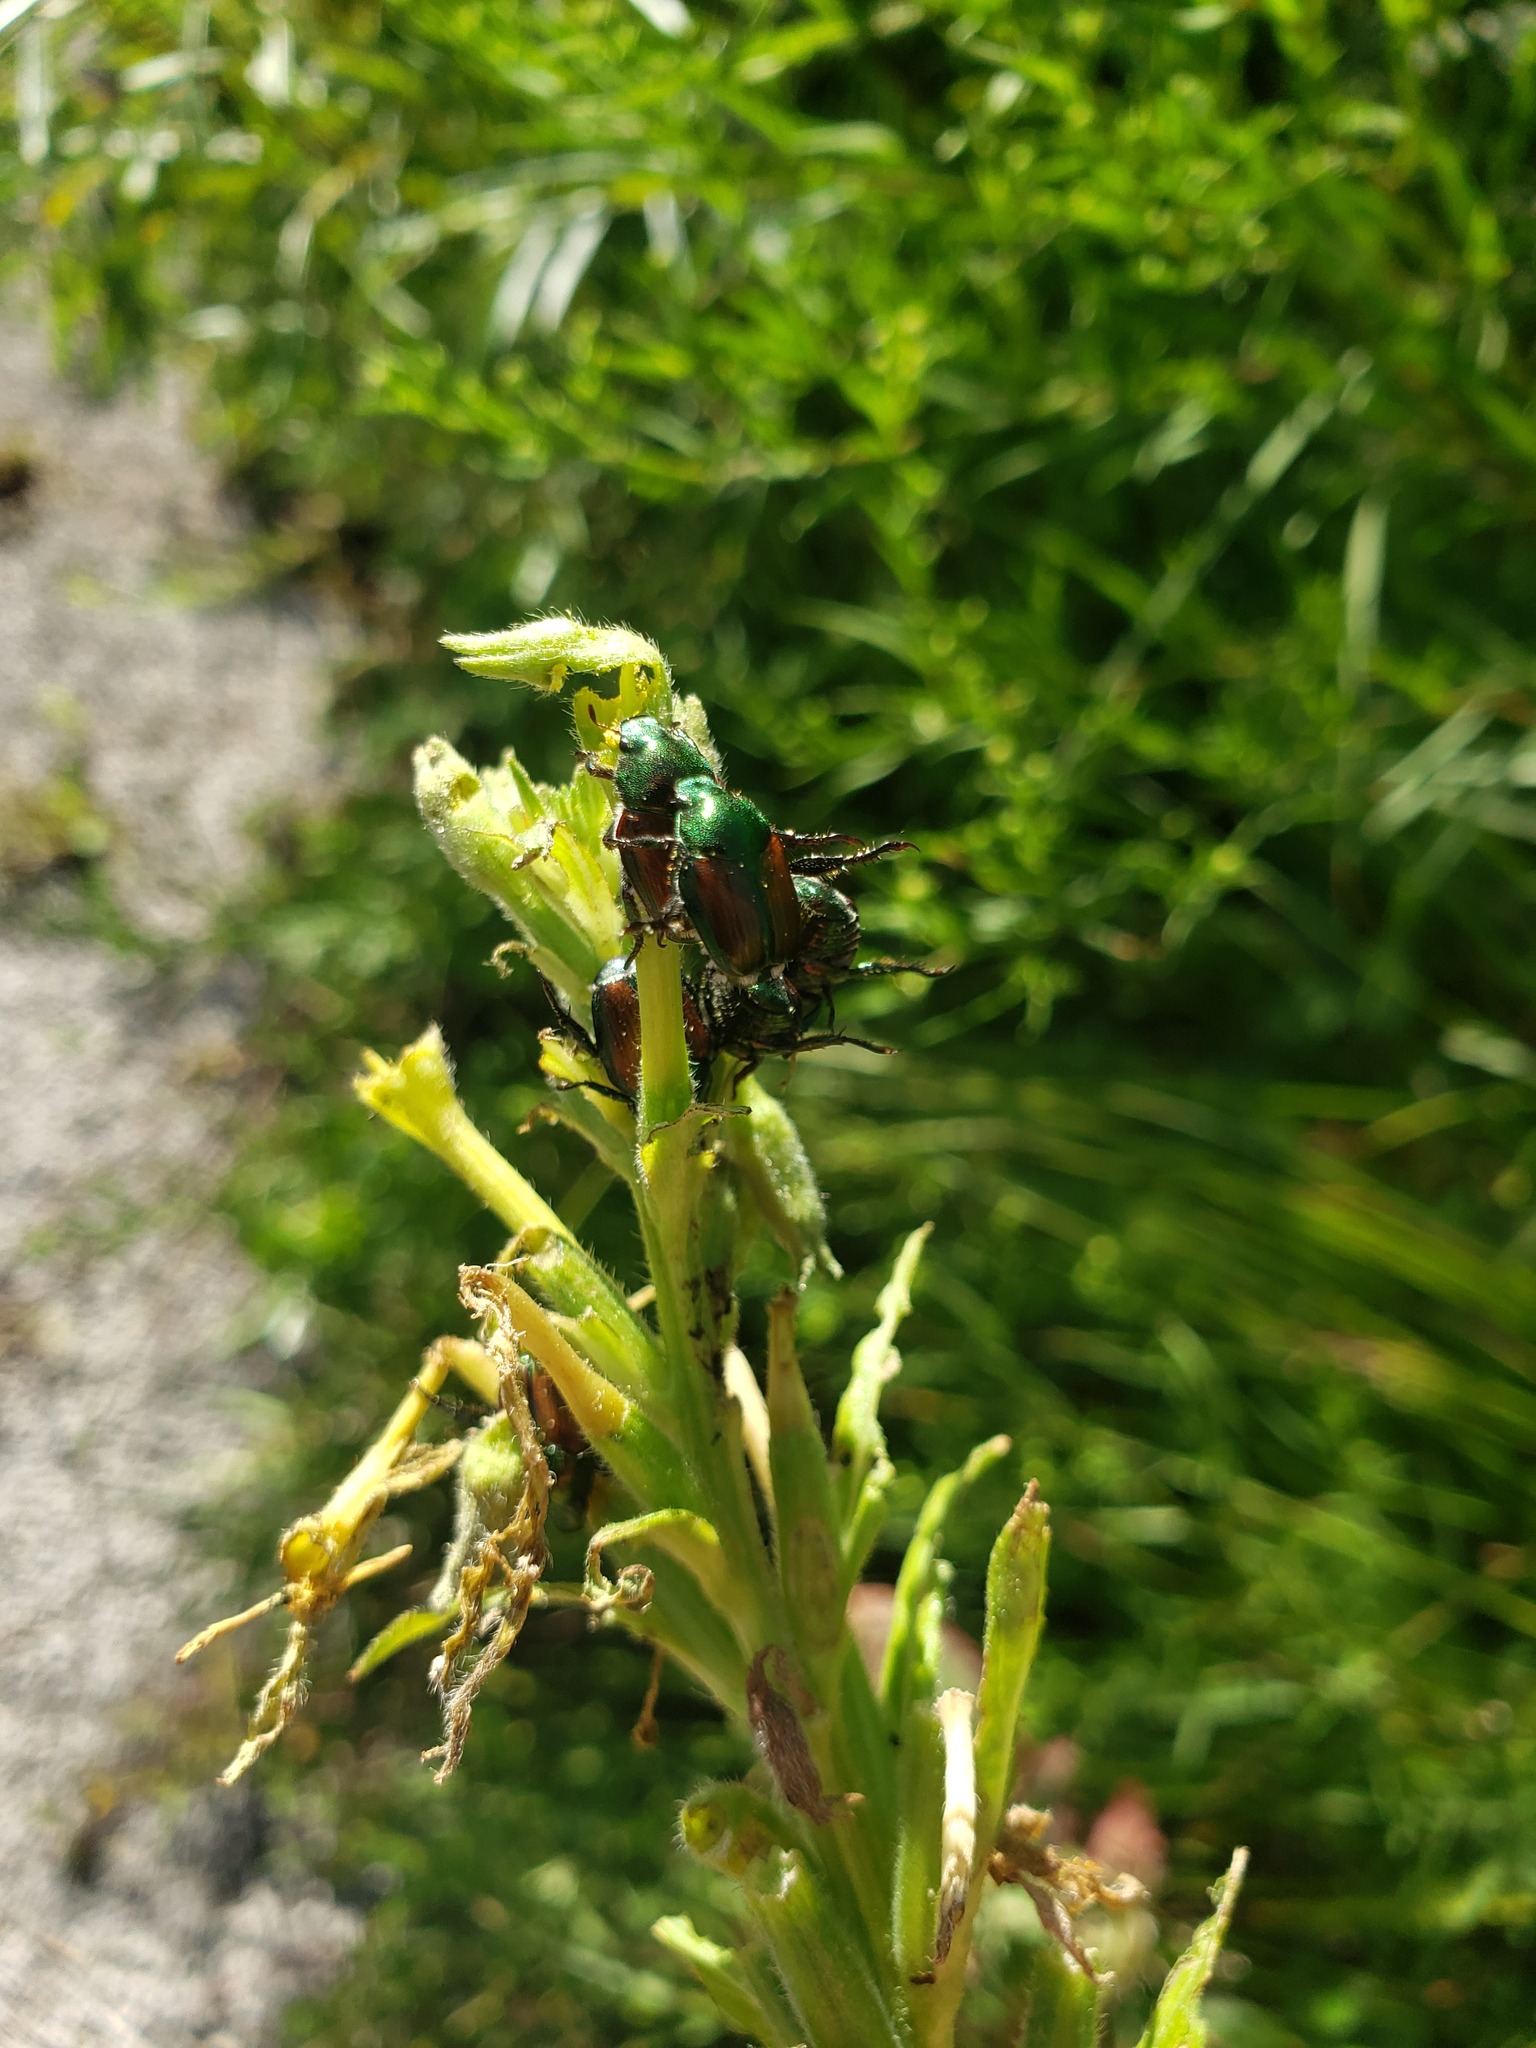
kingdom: Animalia
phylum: Arthropoda
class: Insecta
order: Coleoptera
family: Scarabaeidae
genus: Popillia
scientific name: Popillia japonica
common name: Japanese beetle
